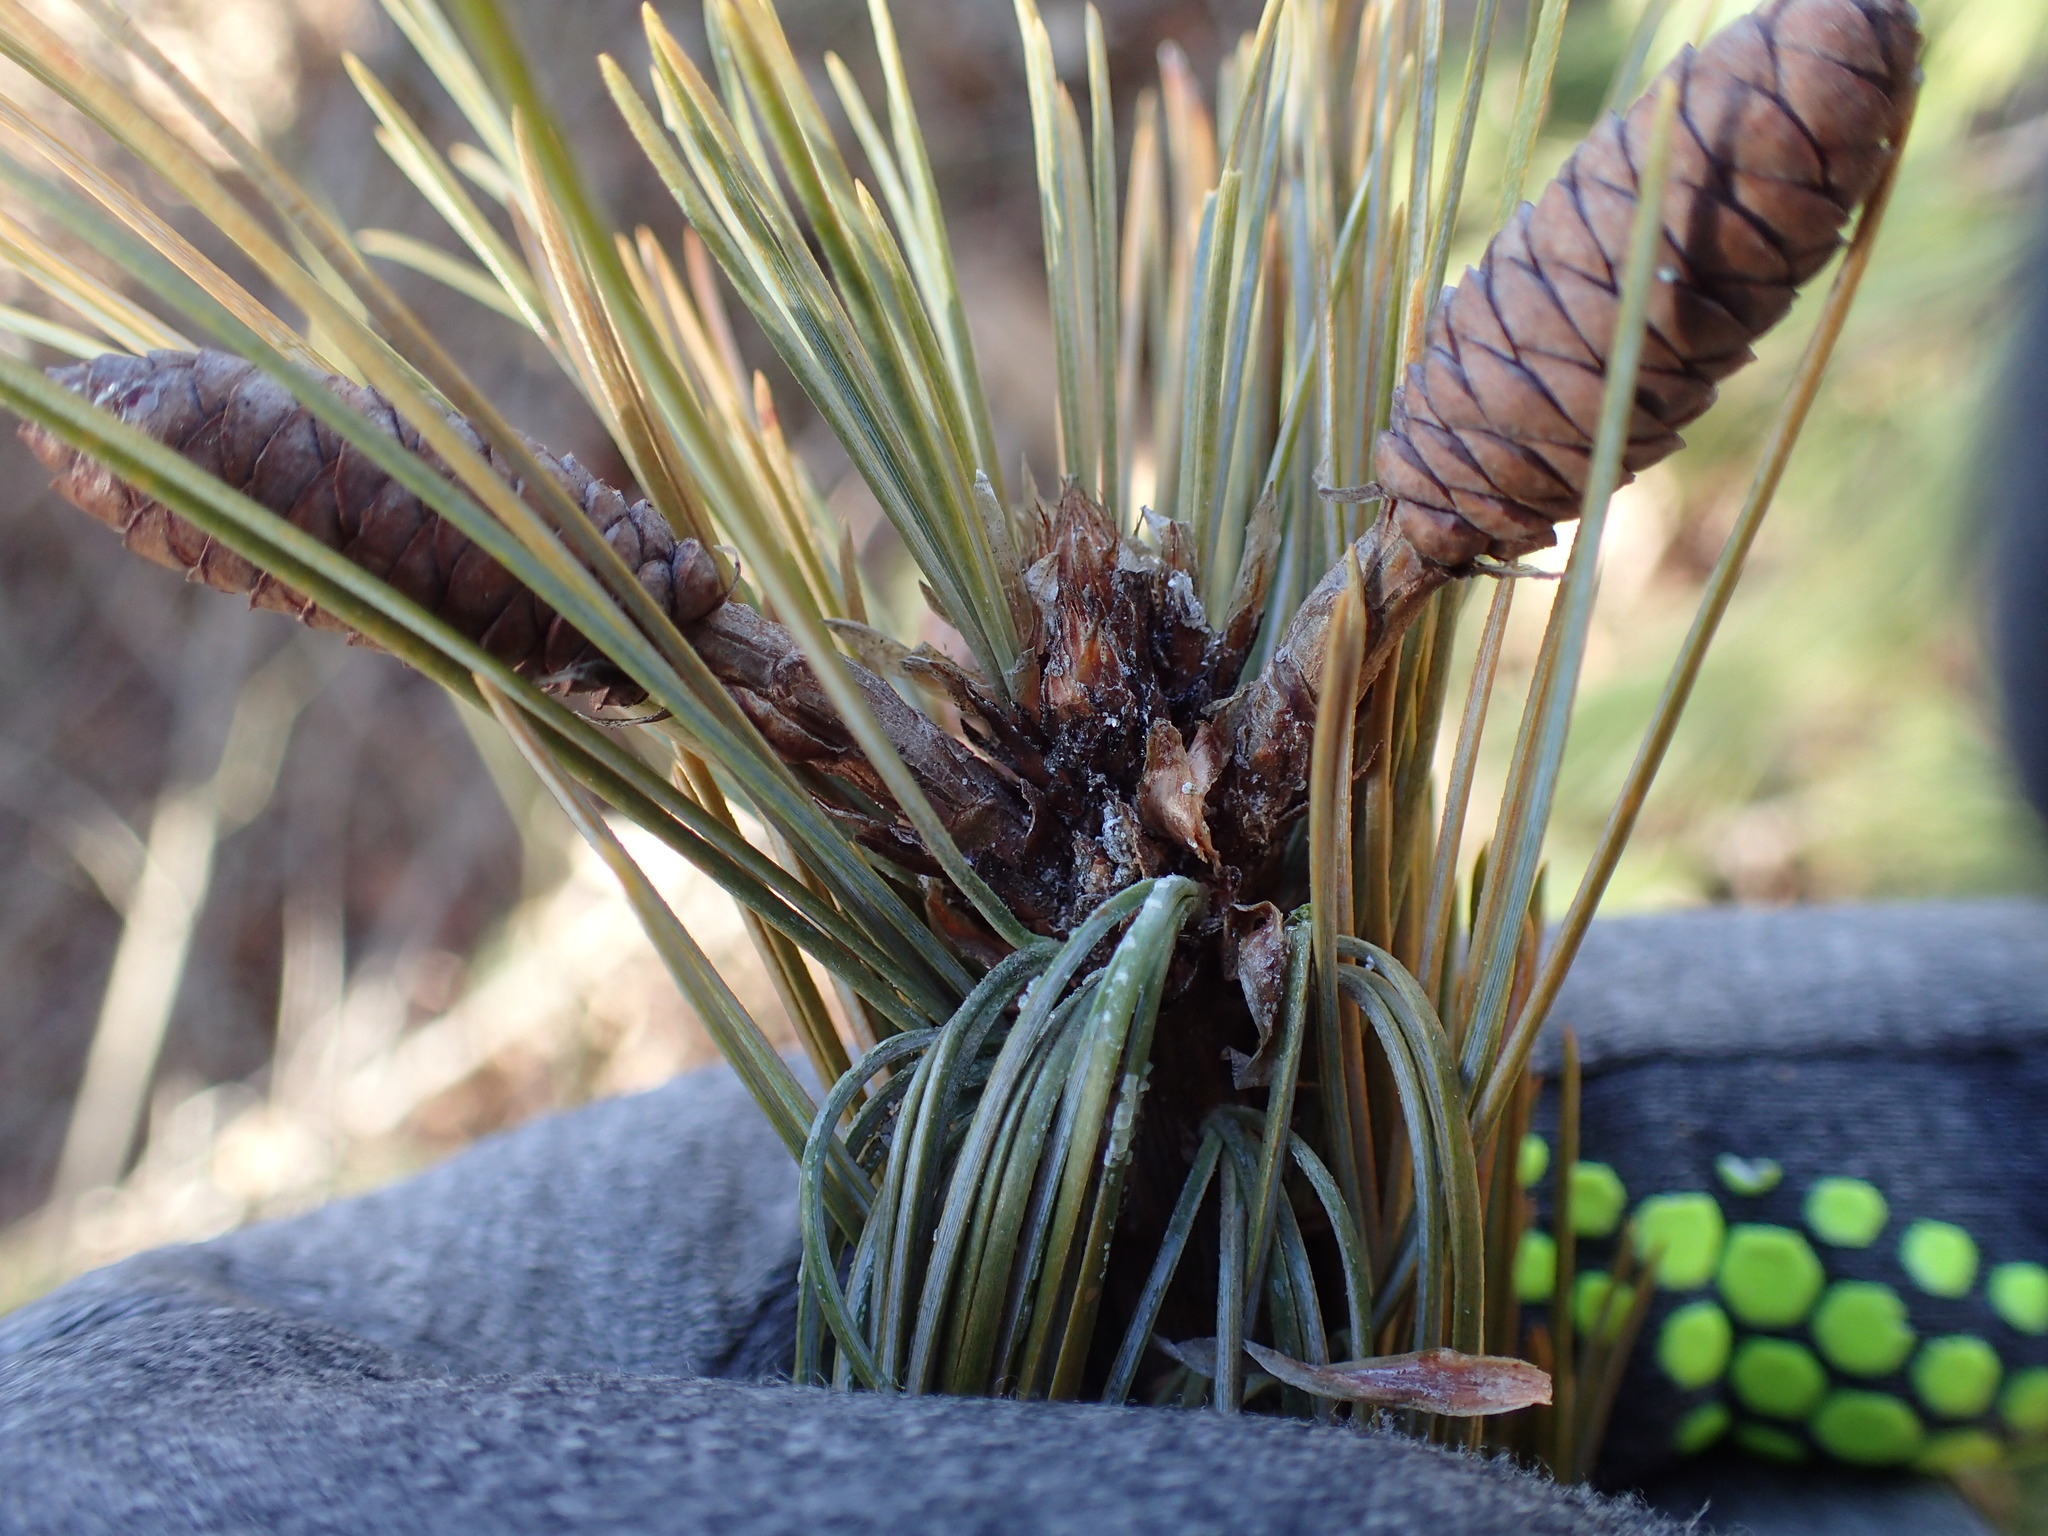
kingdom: Plantae
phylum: Tracheophyta
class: Pinopsida
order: Pinales
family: Pinaceae
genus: Pinus
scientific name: Pinus strobus
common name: Weymouth pine
